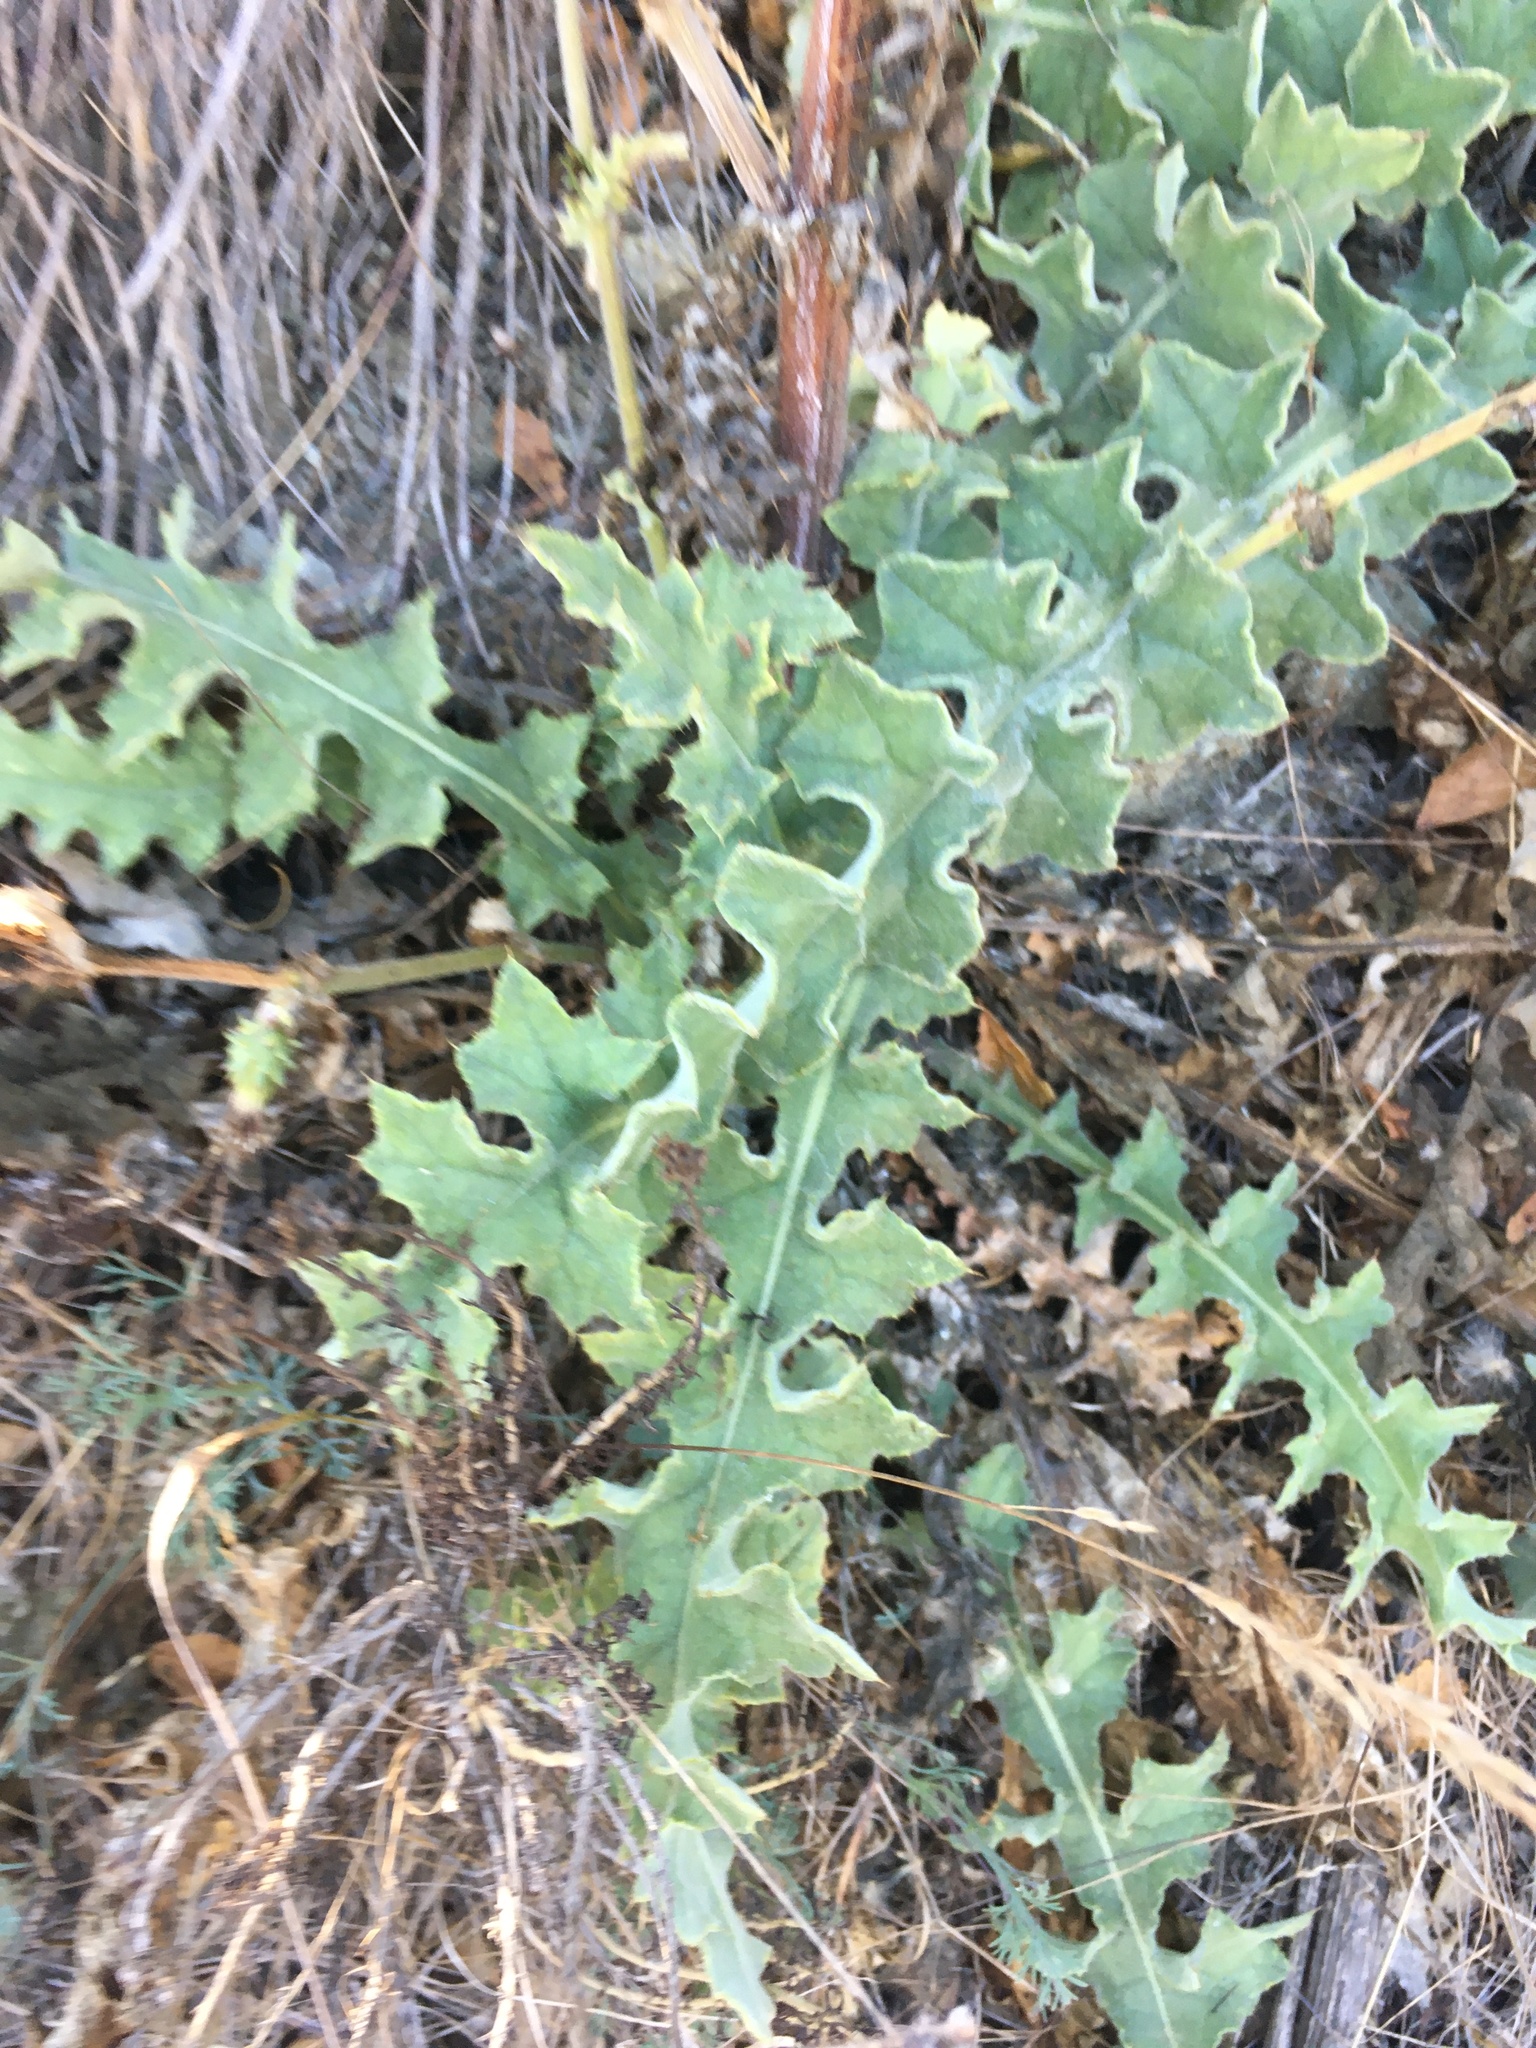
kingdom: Plantae
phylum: Tracheophyta
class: Magnoliopsida
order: Asterales
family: Asteraceae
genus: Cirsium
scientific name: Cirsium fontinale
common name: Fountain thistle
